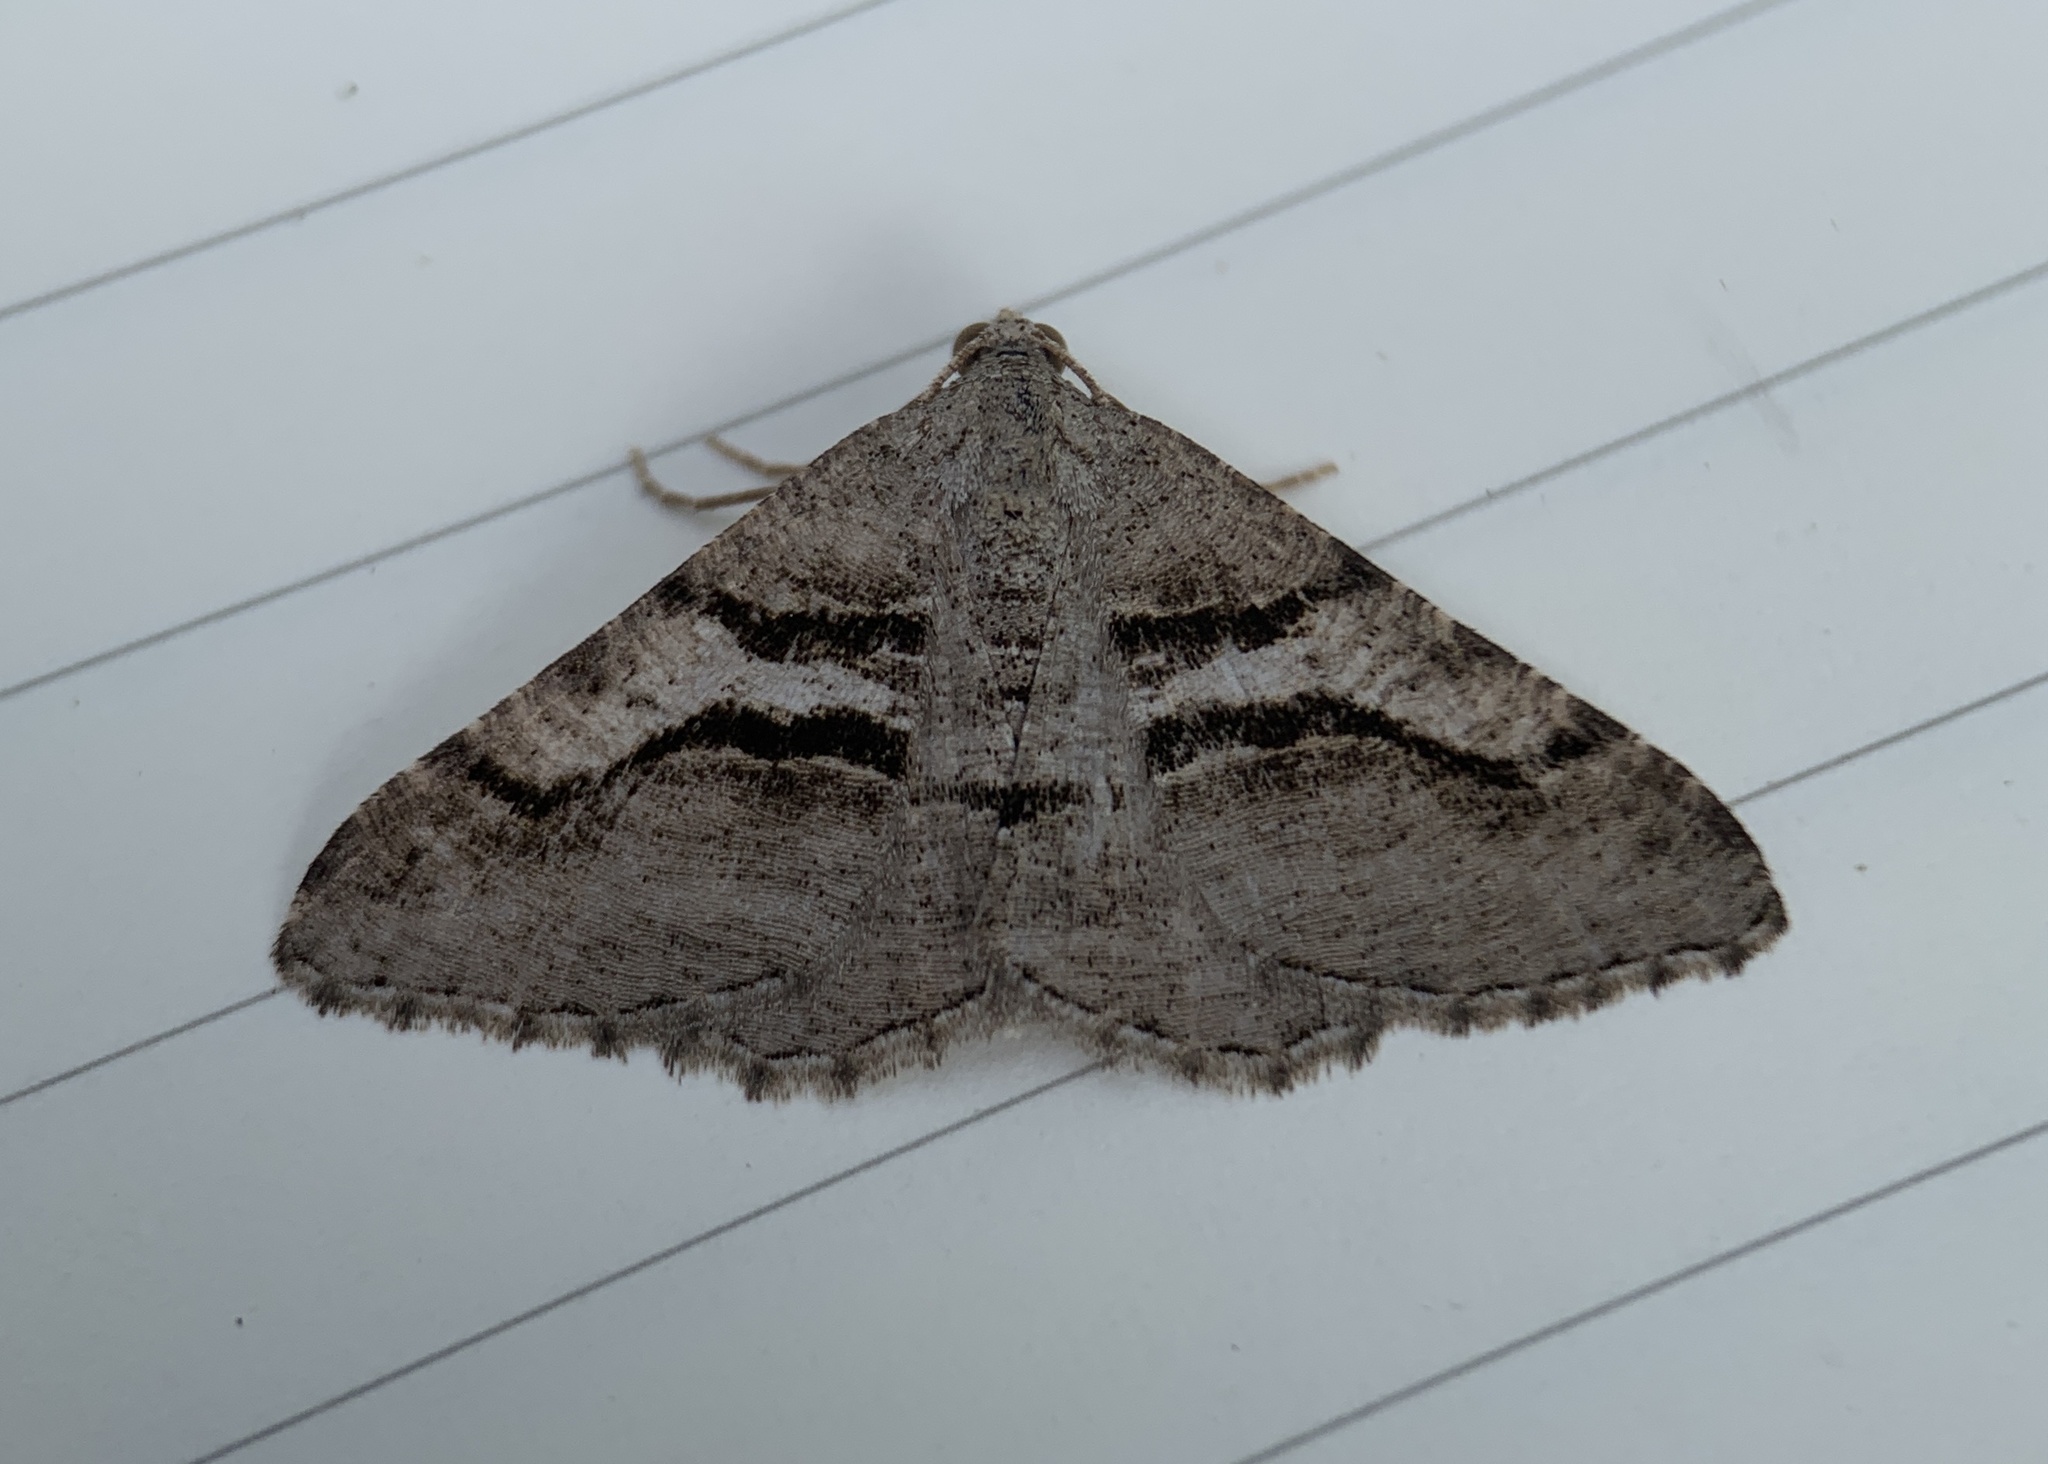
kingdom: Animalia
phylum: Arthropoda
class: Insecta
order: Lepidoptera
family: Geometridae
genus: Digrammia
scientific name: Digrammia continuata
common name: Curve-lined angle
